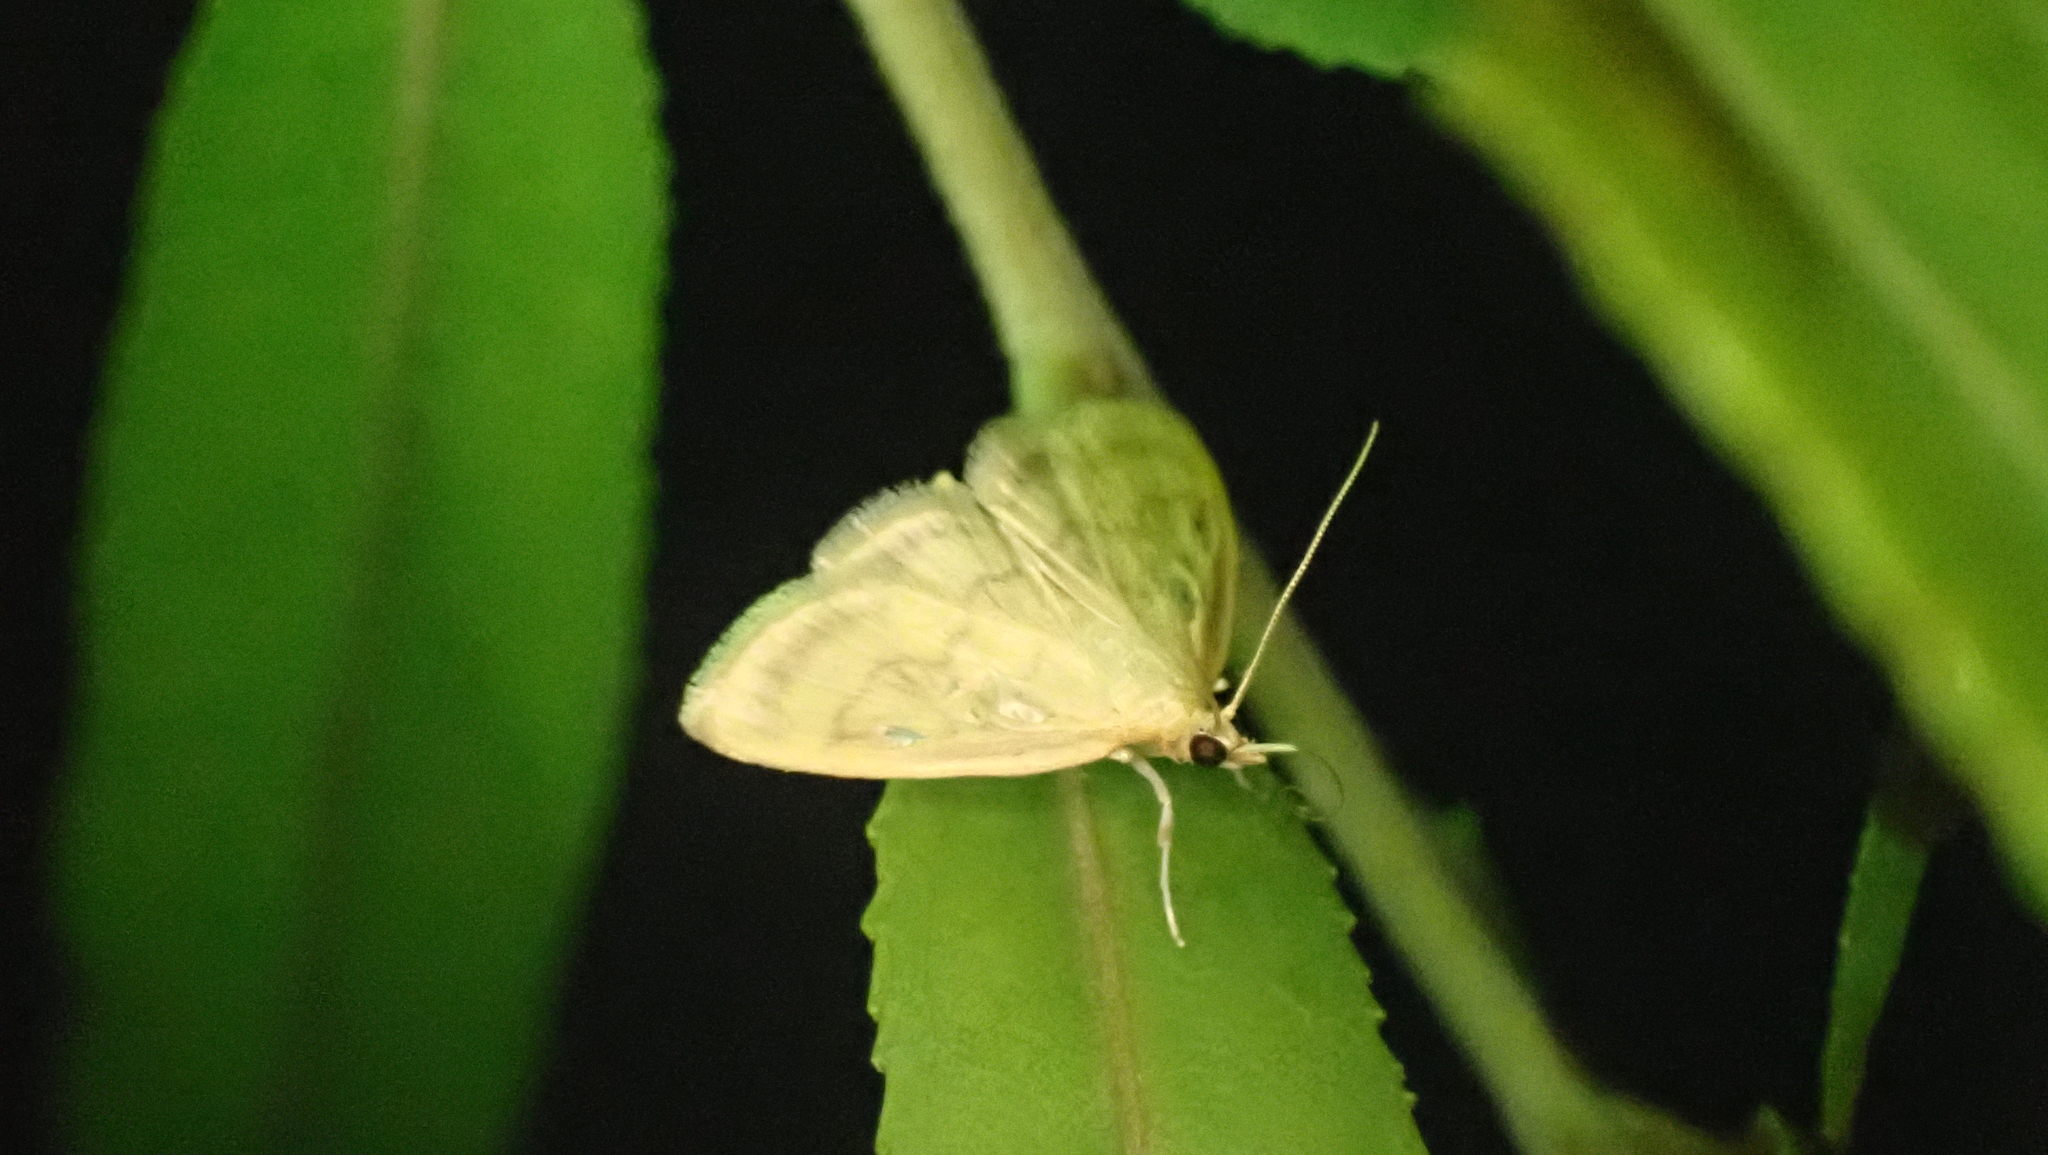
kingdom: Animalia
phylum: Arthropoda
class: Insecta
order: Lepidoptera
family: Crambidae
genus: Crocidophora
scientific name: Crocidophora tuberculalis
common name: Pale-winged crocidiphora moth
